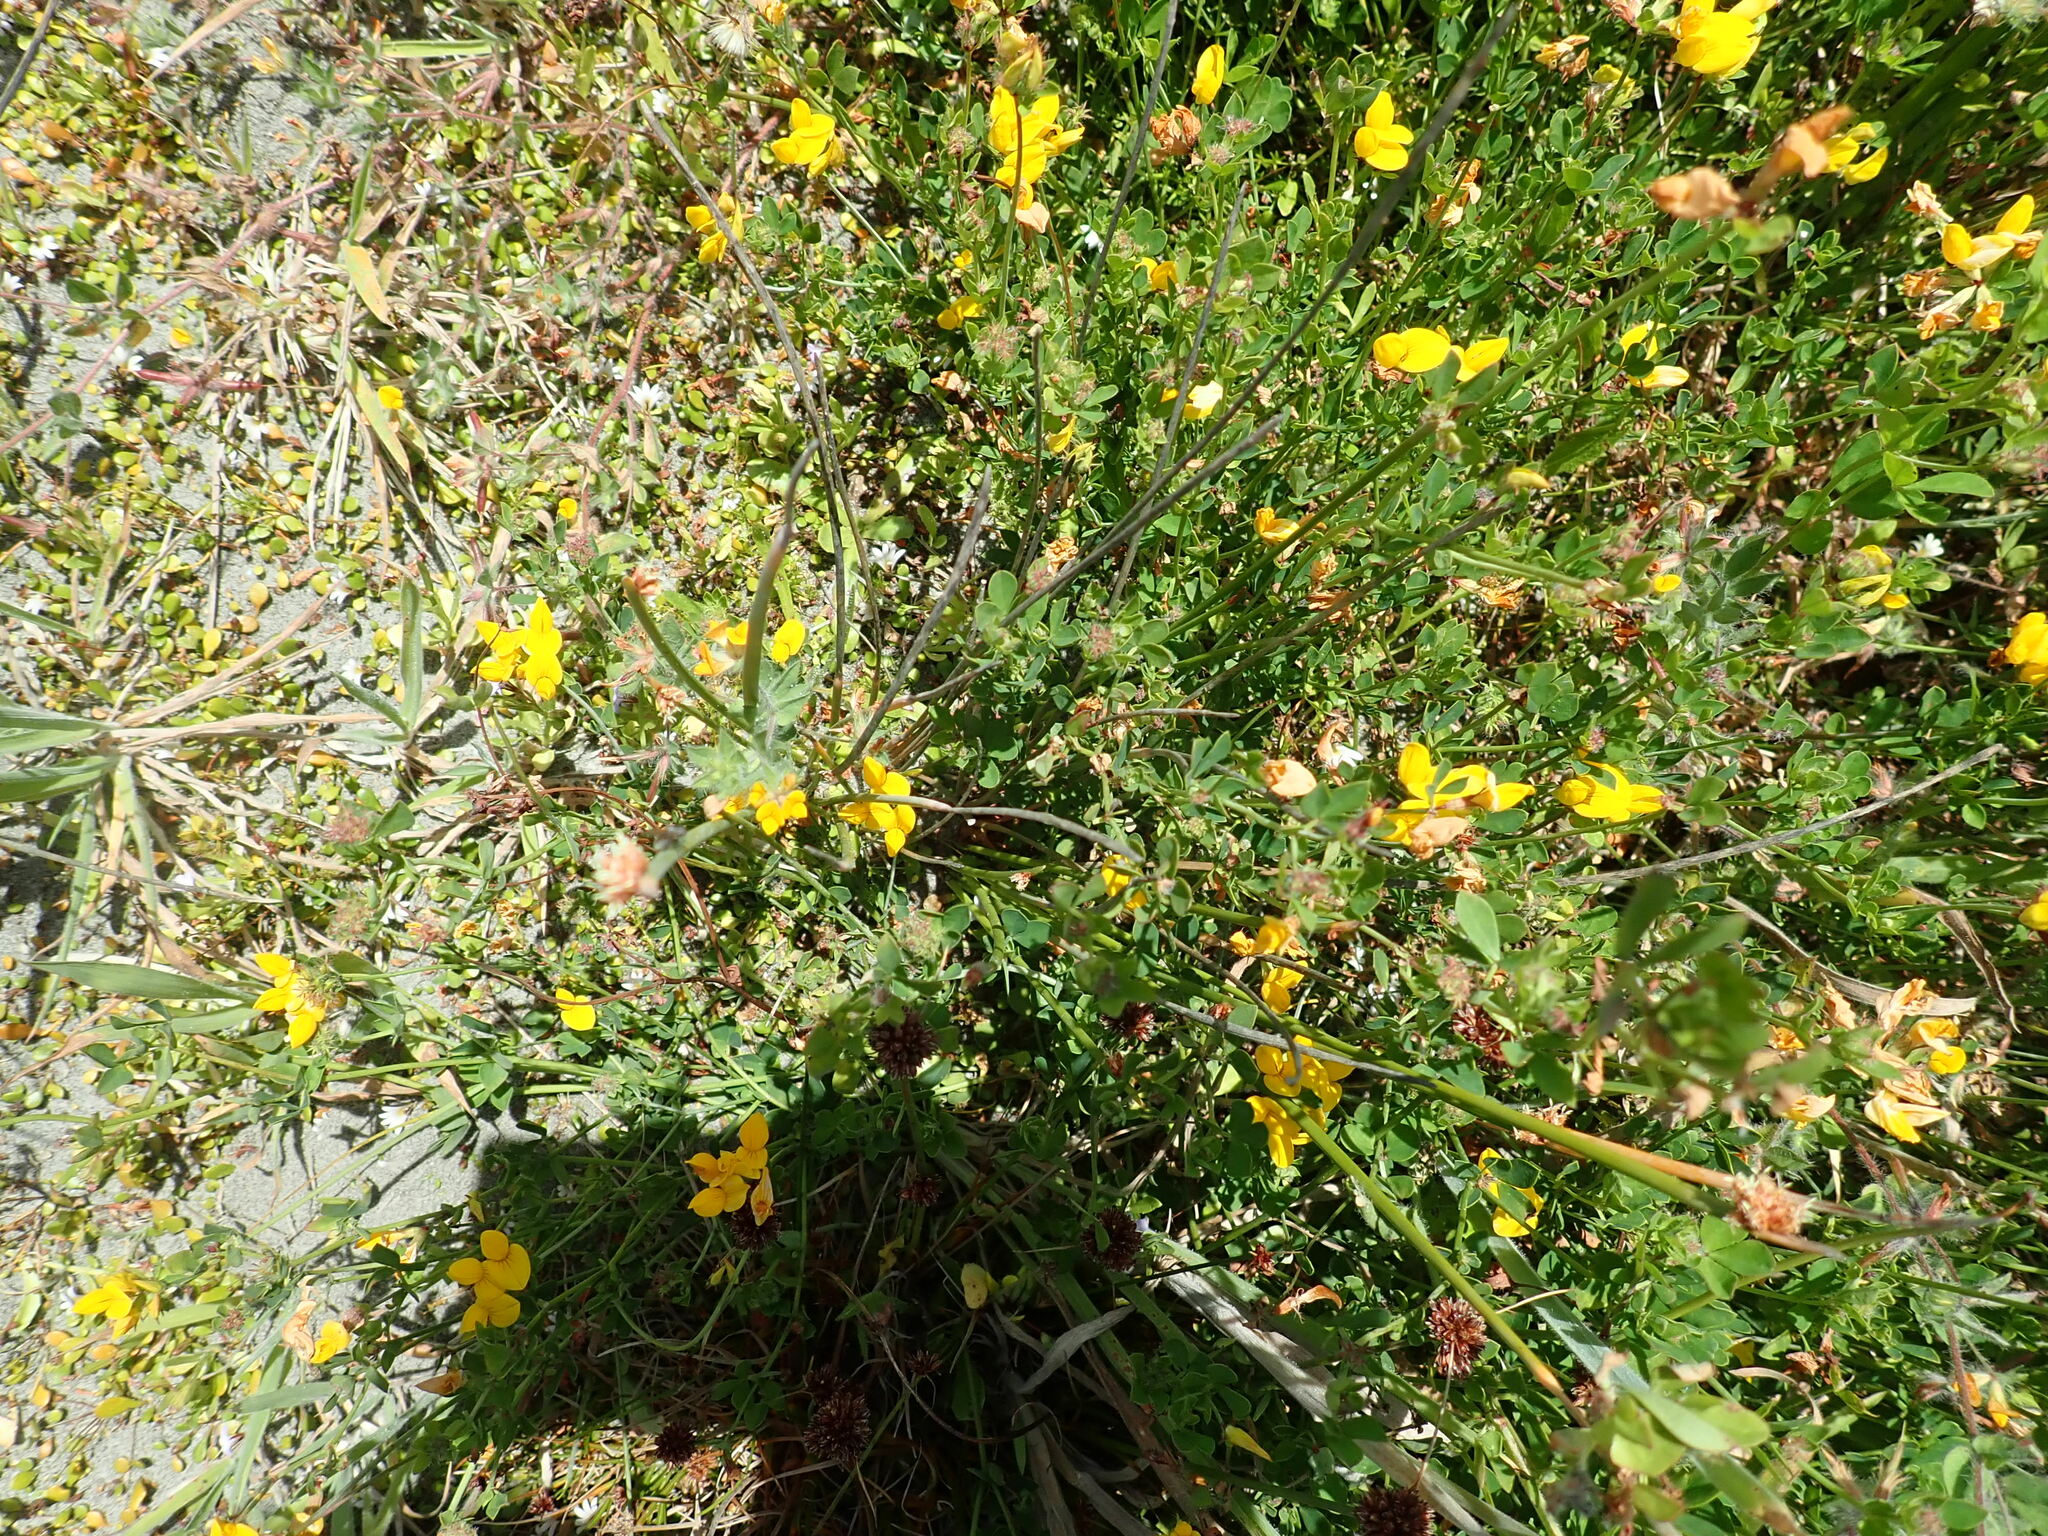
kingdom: Plantae
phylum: Tracheophyta
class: Magnoliopsida
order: Fabales
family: Fabaceae
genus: Lotus
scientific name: Lotus pedunculatus
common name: Greater birdsfoot-trefoil
